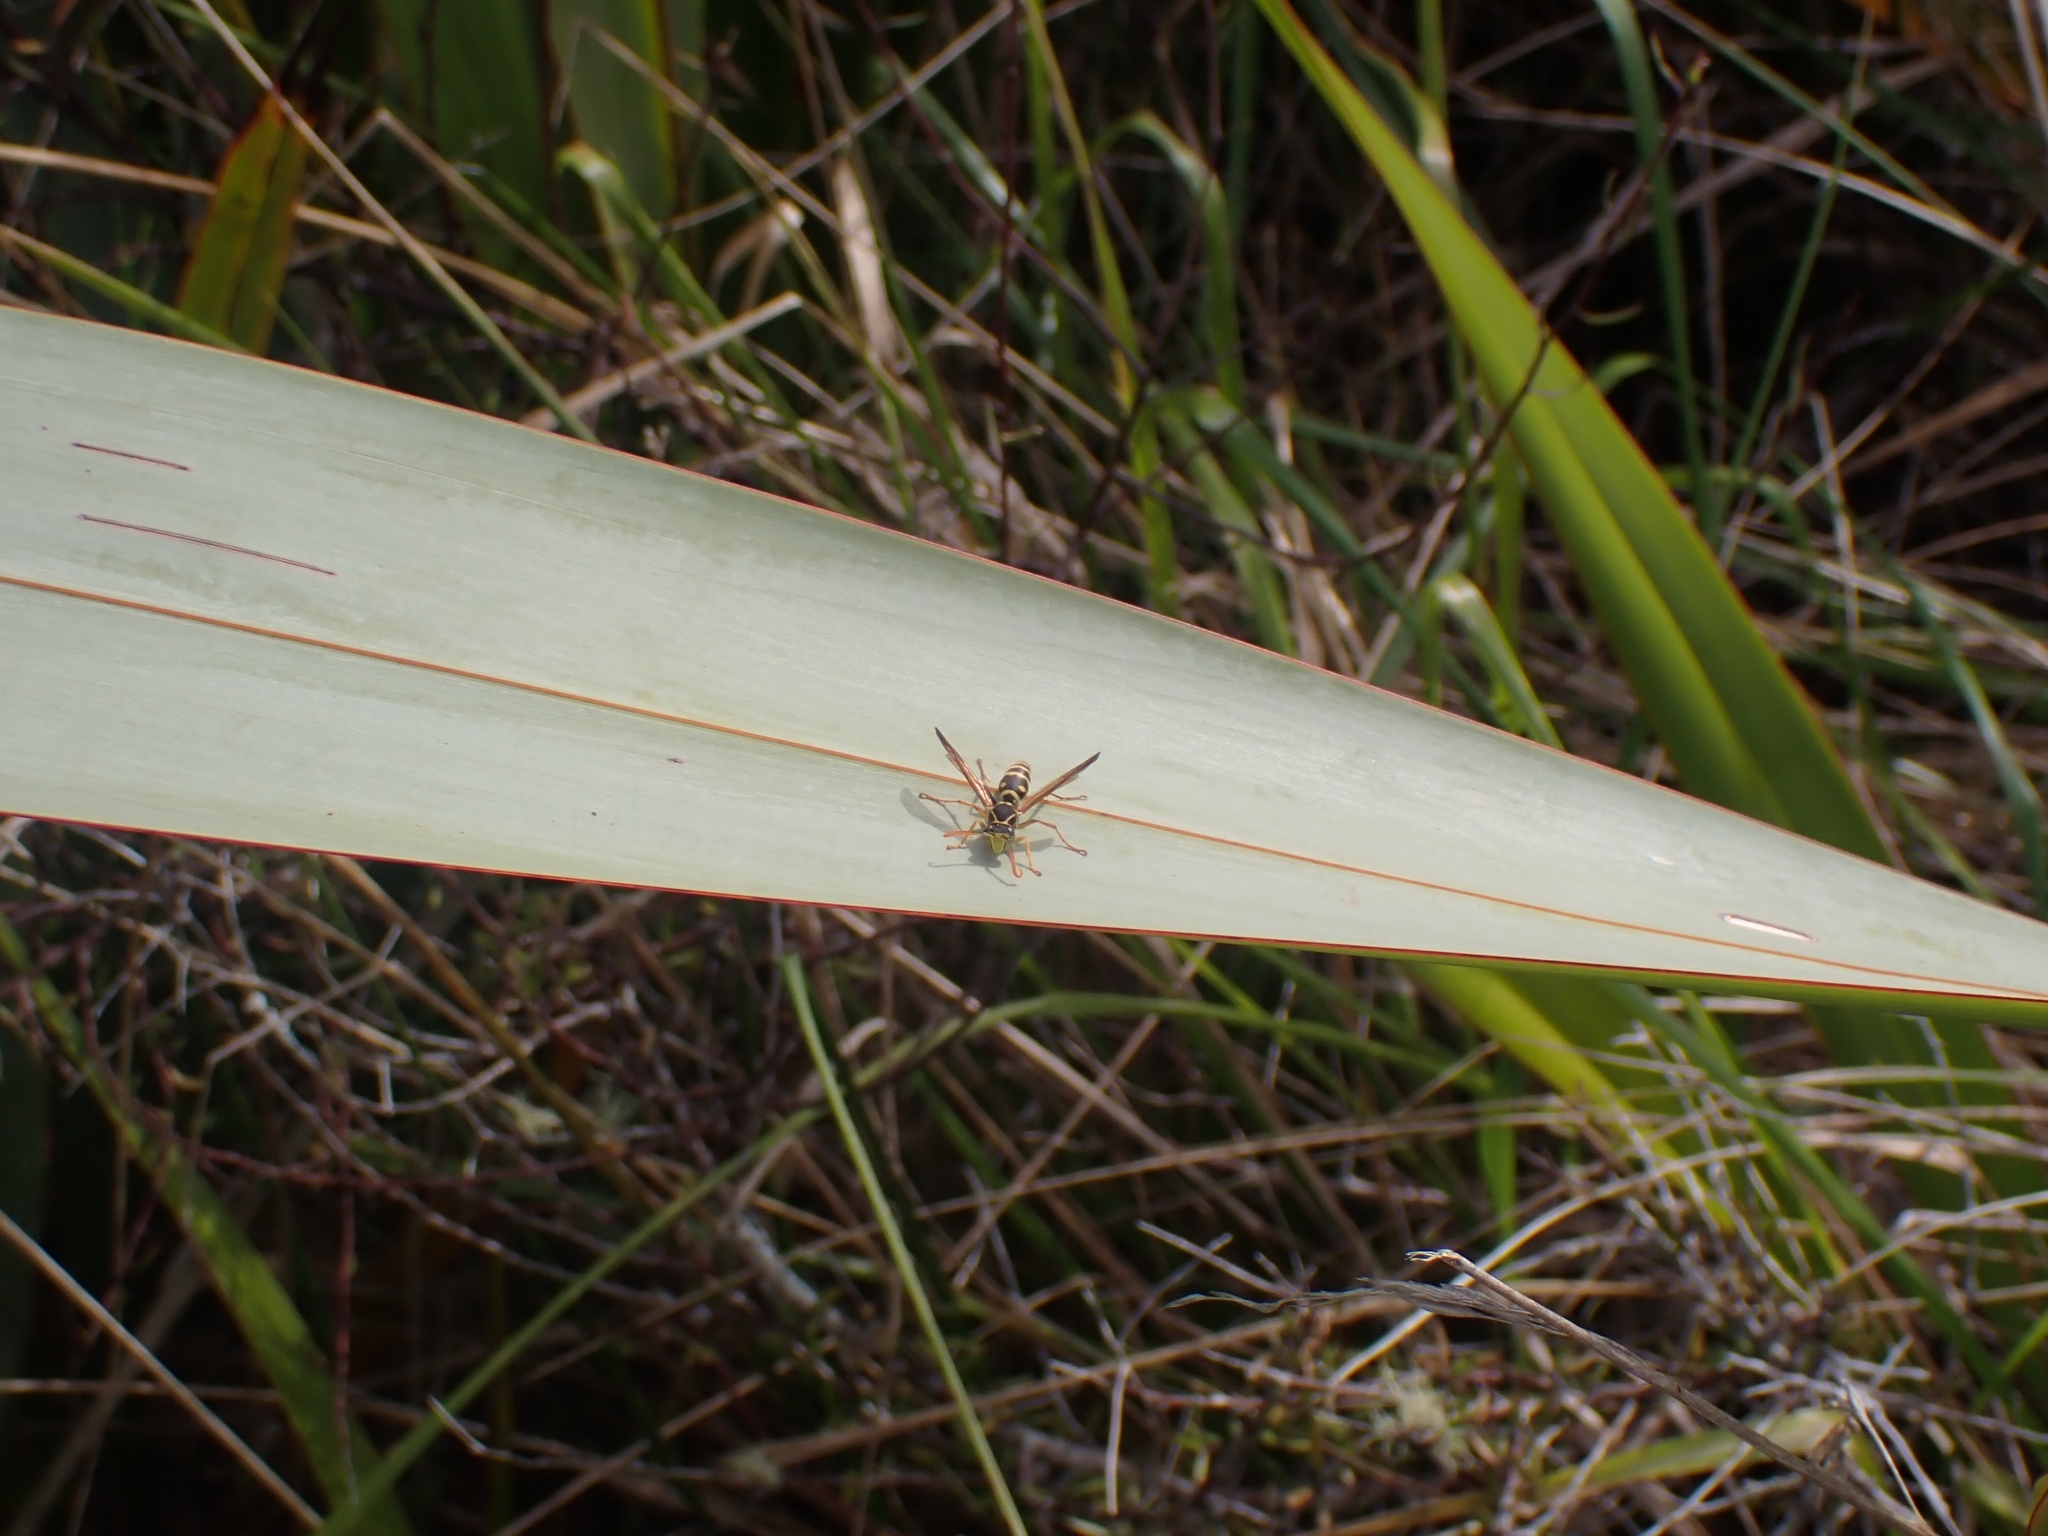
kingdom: Animalia
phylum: Arthropoda
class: Insecta
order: Hymenoptera
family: Eumenidae
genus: Polistes
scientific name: Polistes chinensis
